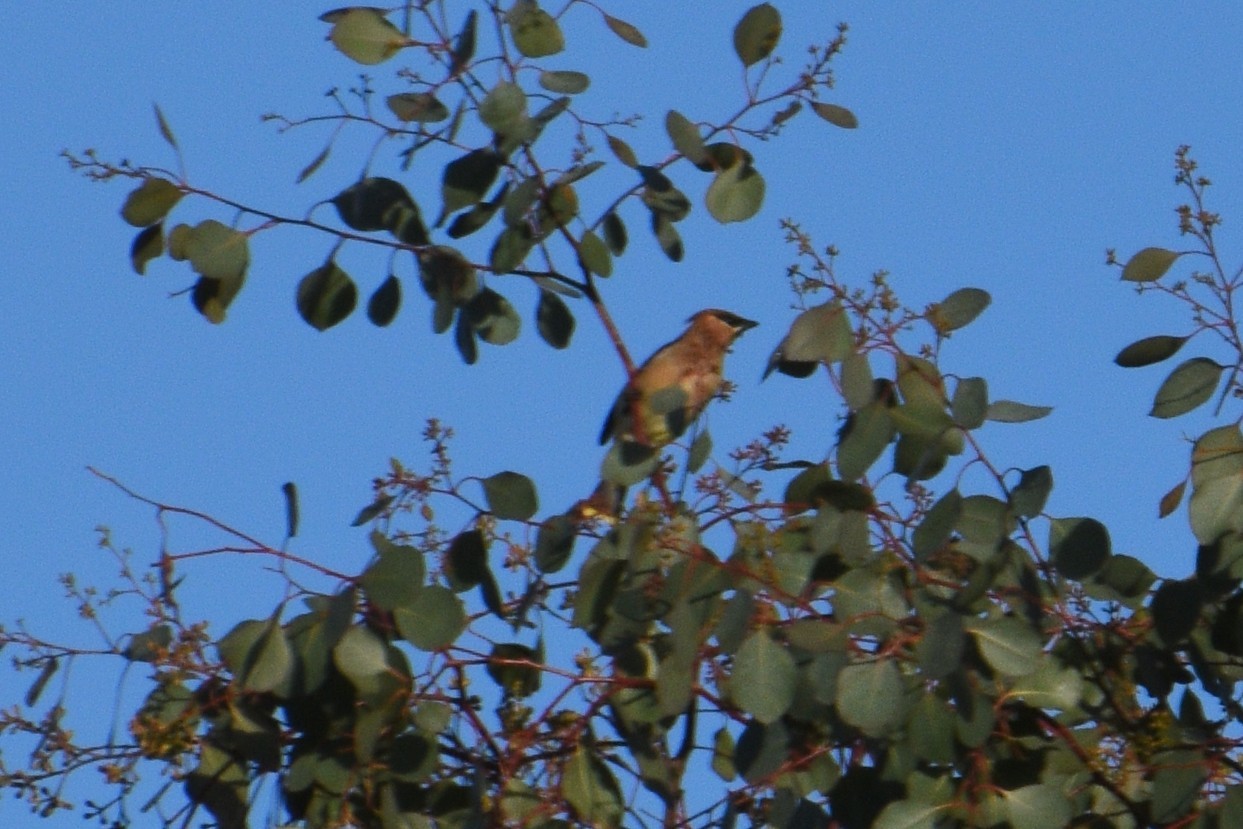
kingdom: Animalia
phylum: Chordata
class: Aves
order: Passeriformes
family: Bombycillidae
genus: Bombycilla
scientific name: Bombycilla cedrorum
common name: Cedar waxwing
